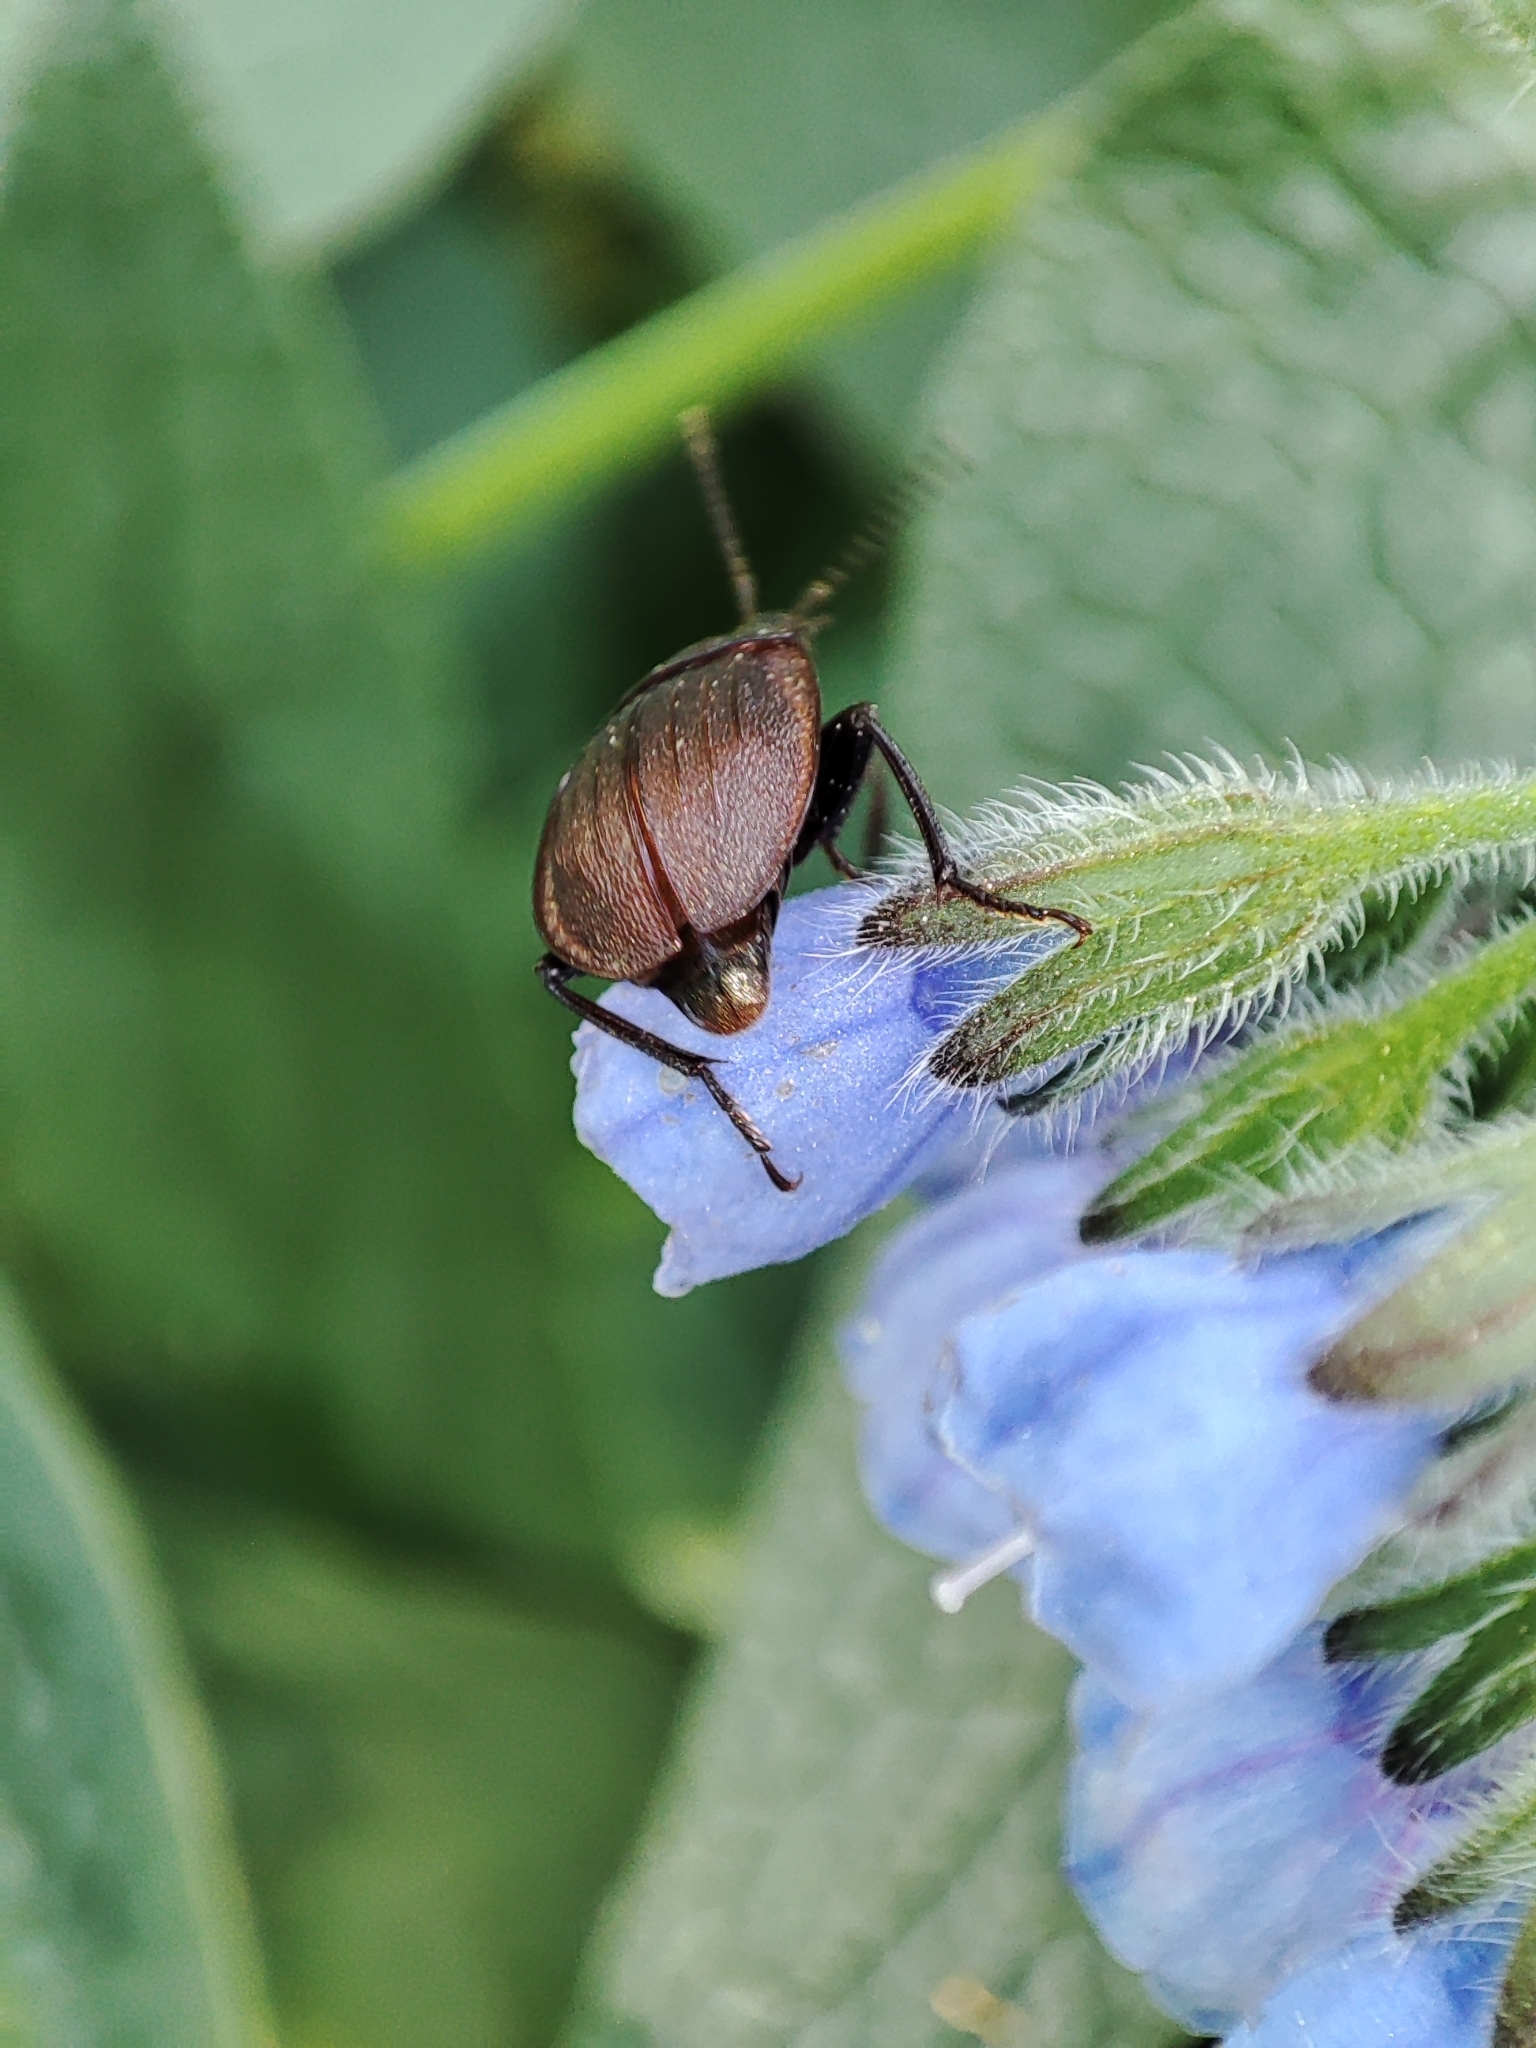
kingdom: Animalia
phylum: Arthropoda
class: Insecta
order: Coleoptera
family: Staphylinidae
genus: Silpha
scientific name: Silpha atrata
